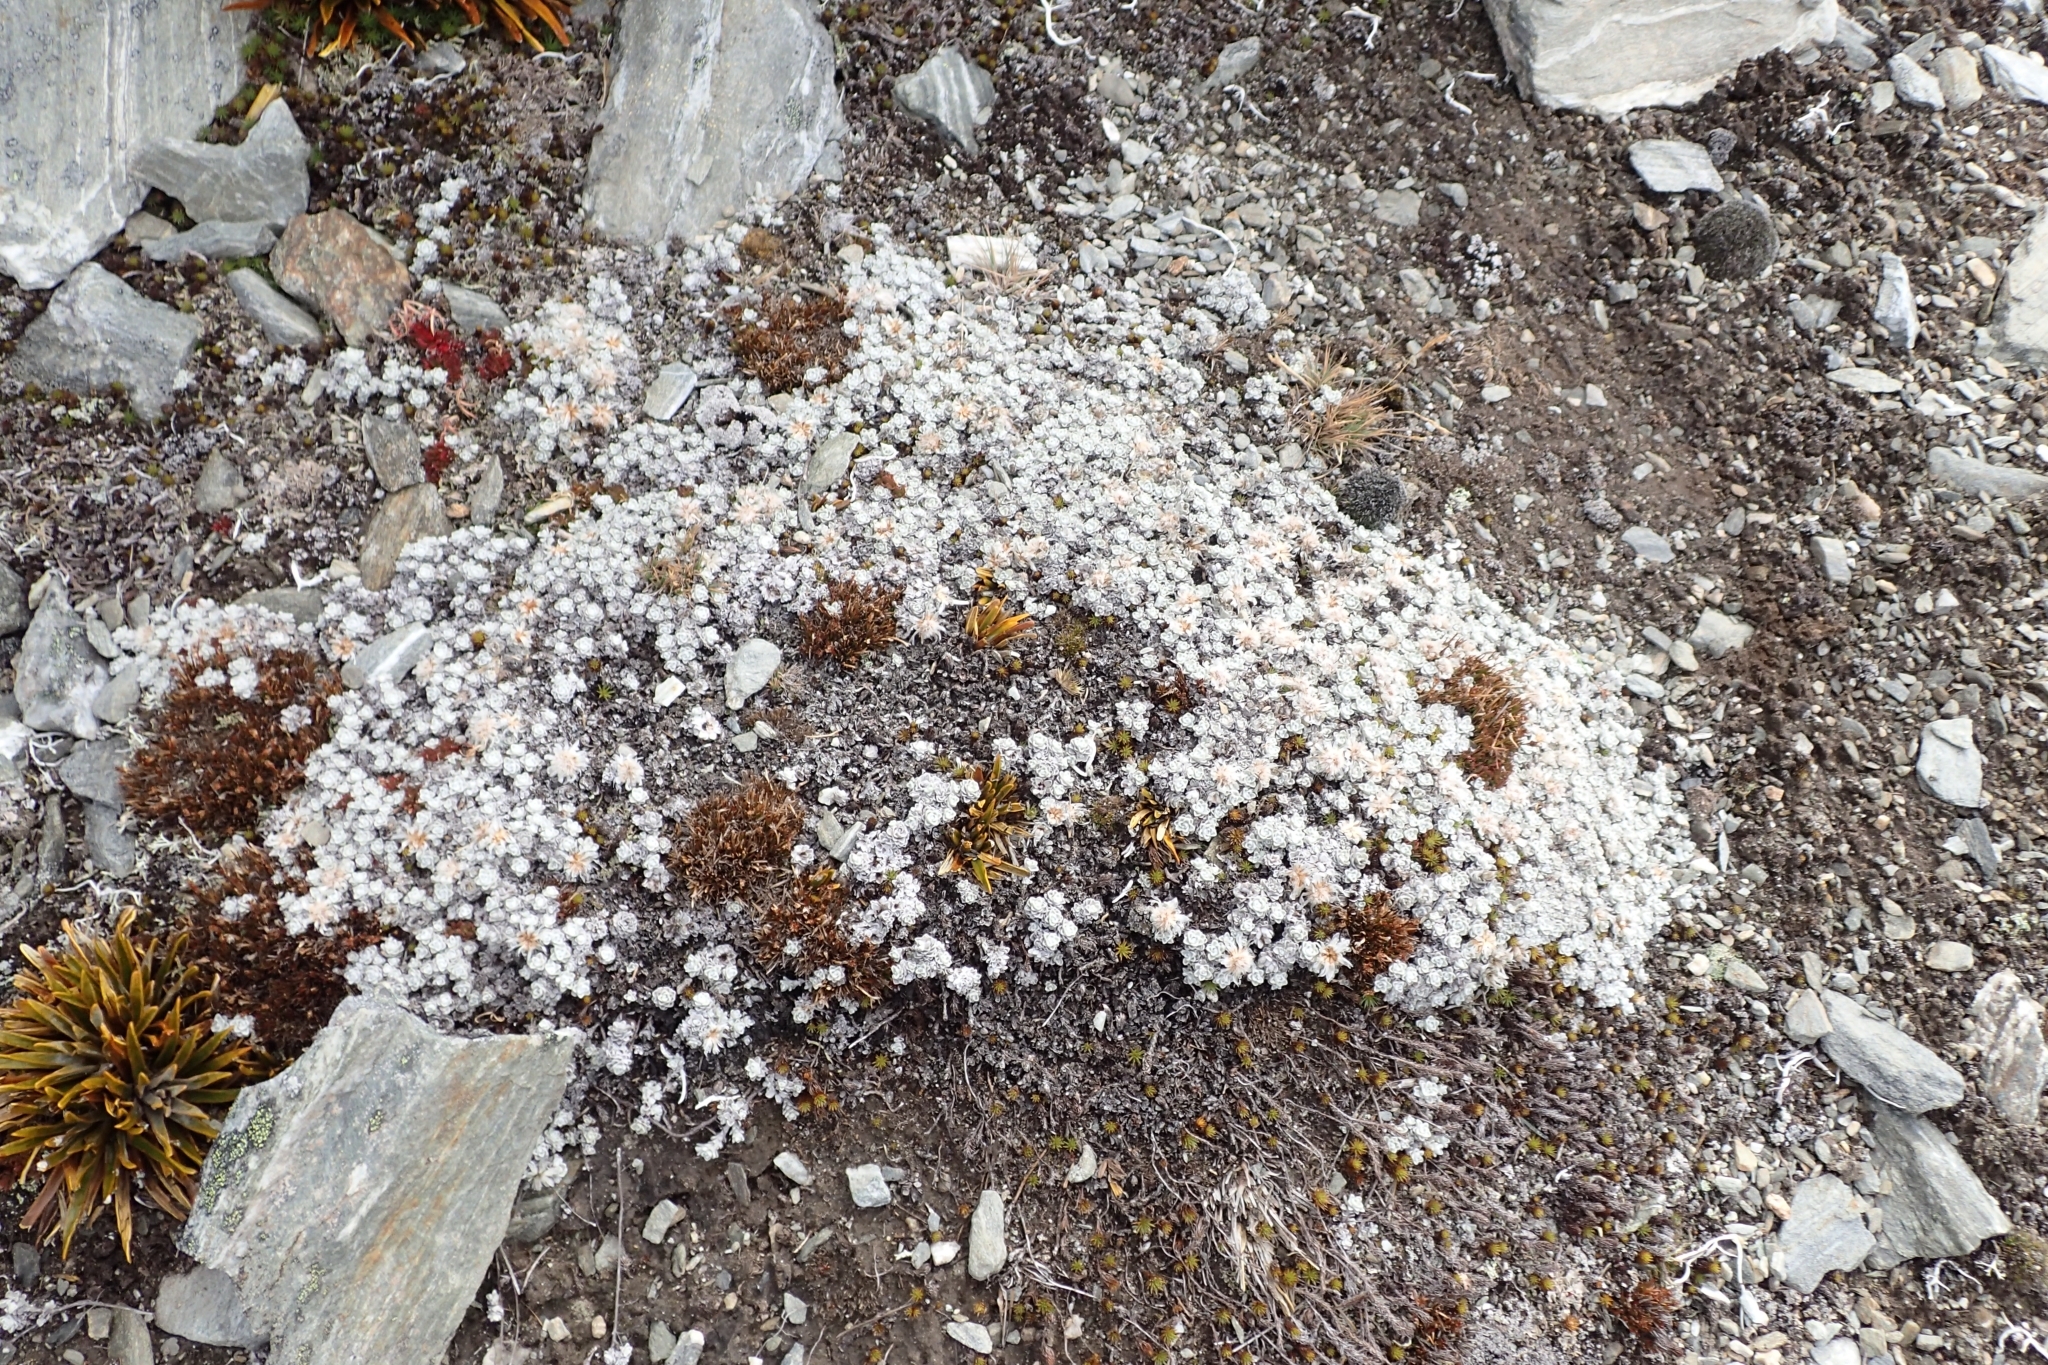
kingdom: Plantae
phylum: Tracheophyta
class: Magnoliopsida
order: Asterales
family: Asteraceae
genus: Raoulia
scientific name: Raoulia youngii
